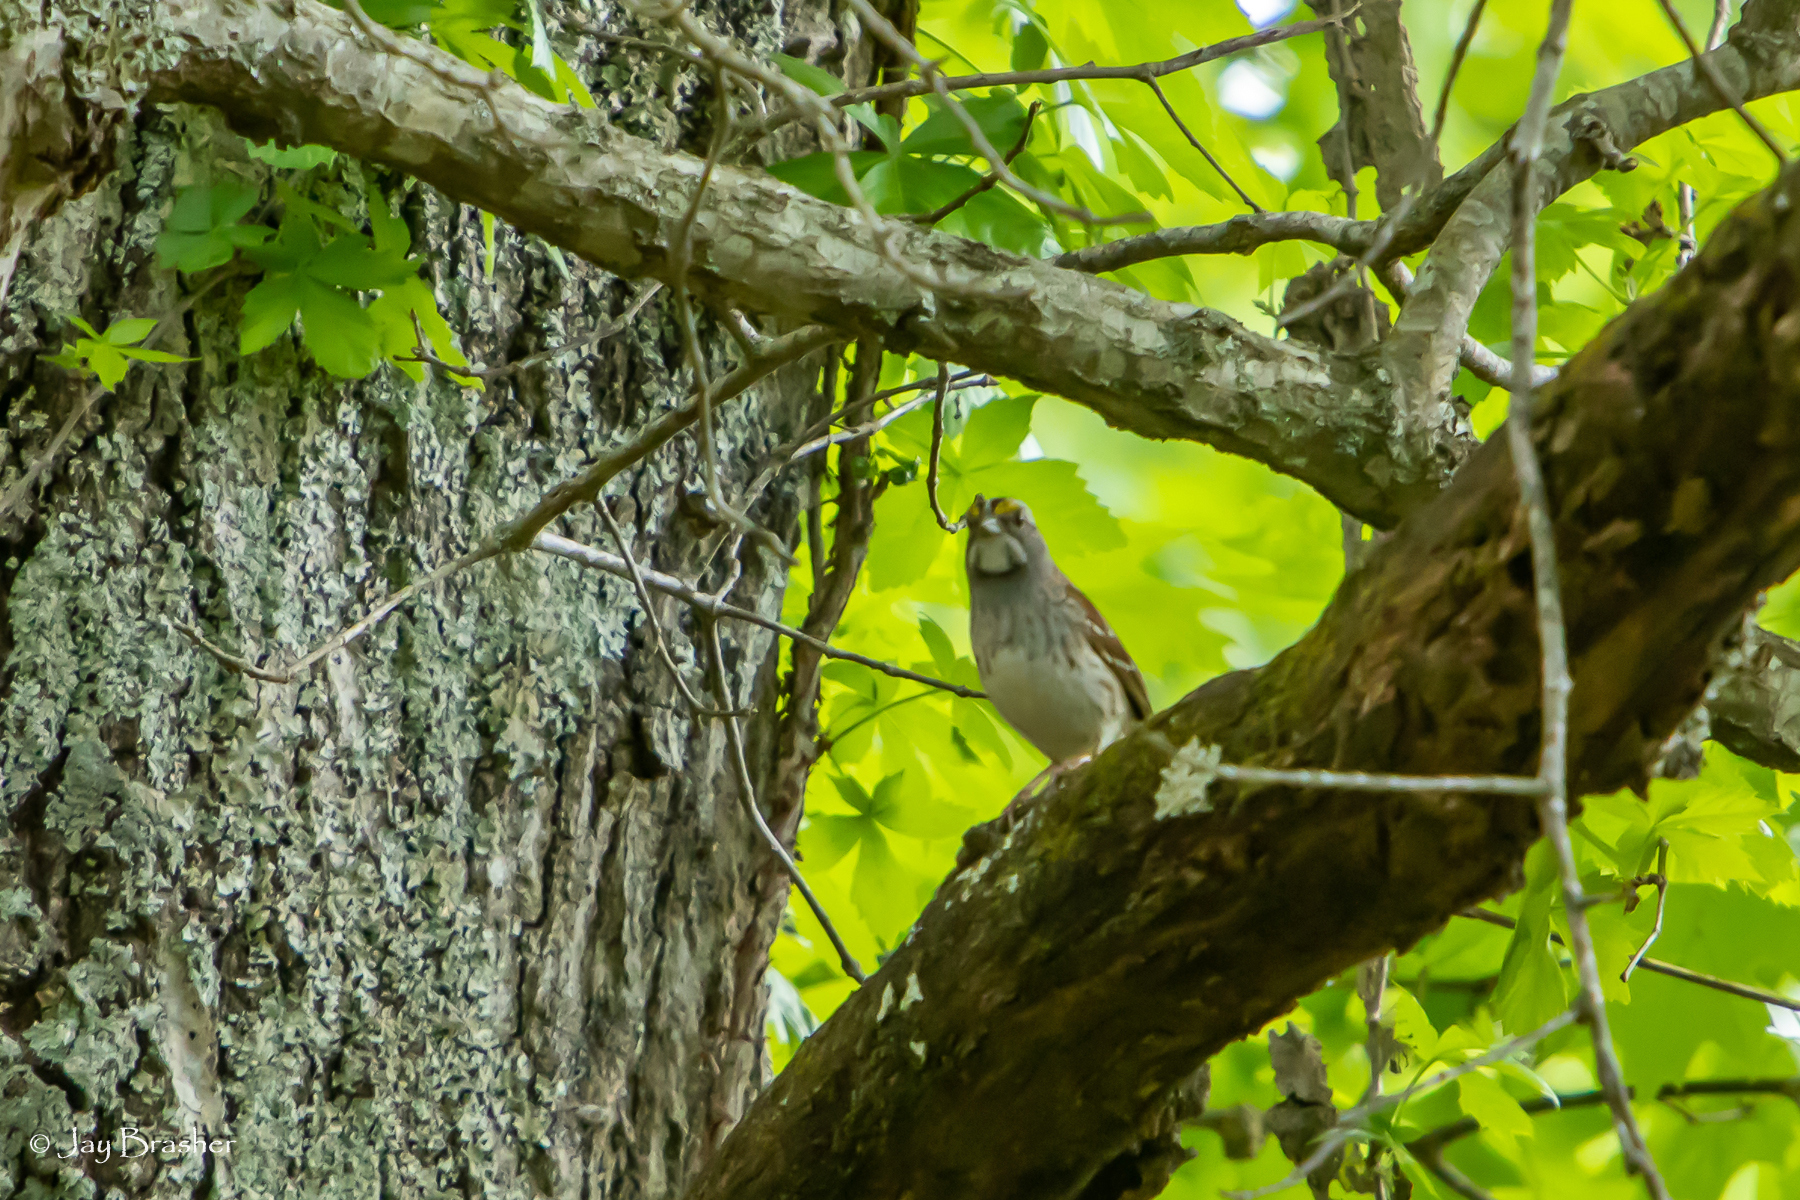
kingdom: Animalia
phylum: Chordata
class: Aves
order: Passeriformes
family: Passerellidae
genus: Zonotrichia
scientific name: Zonotrichia albicollis
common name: White-throated sparrow
